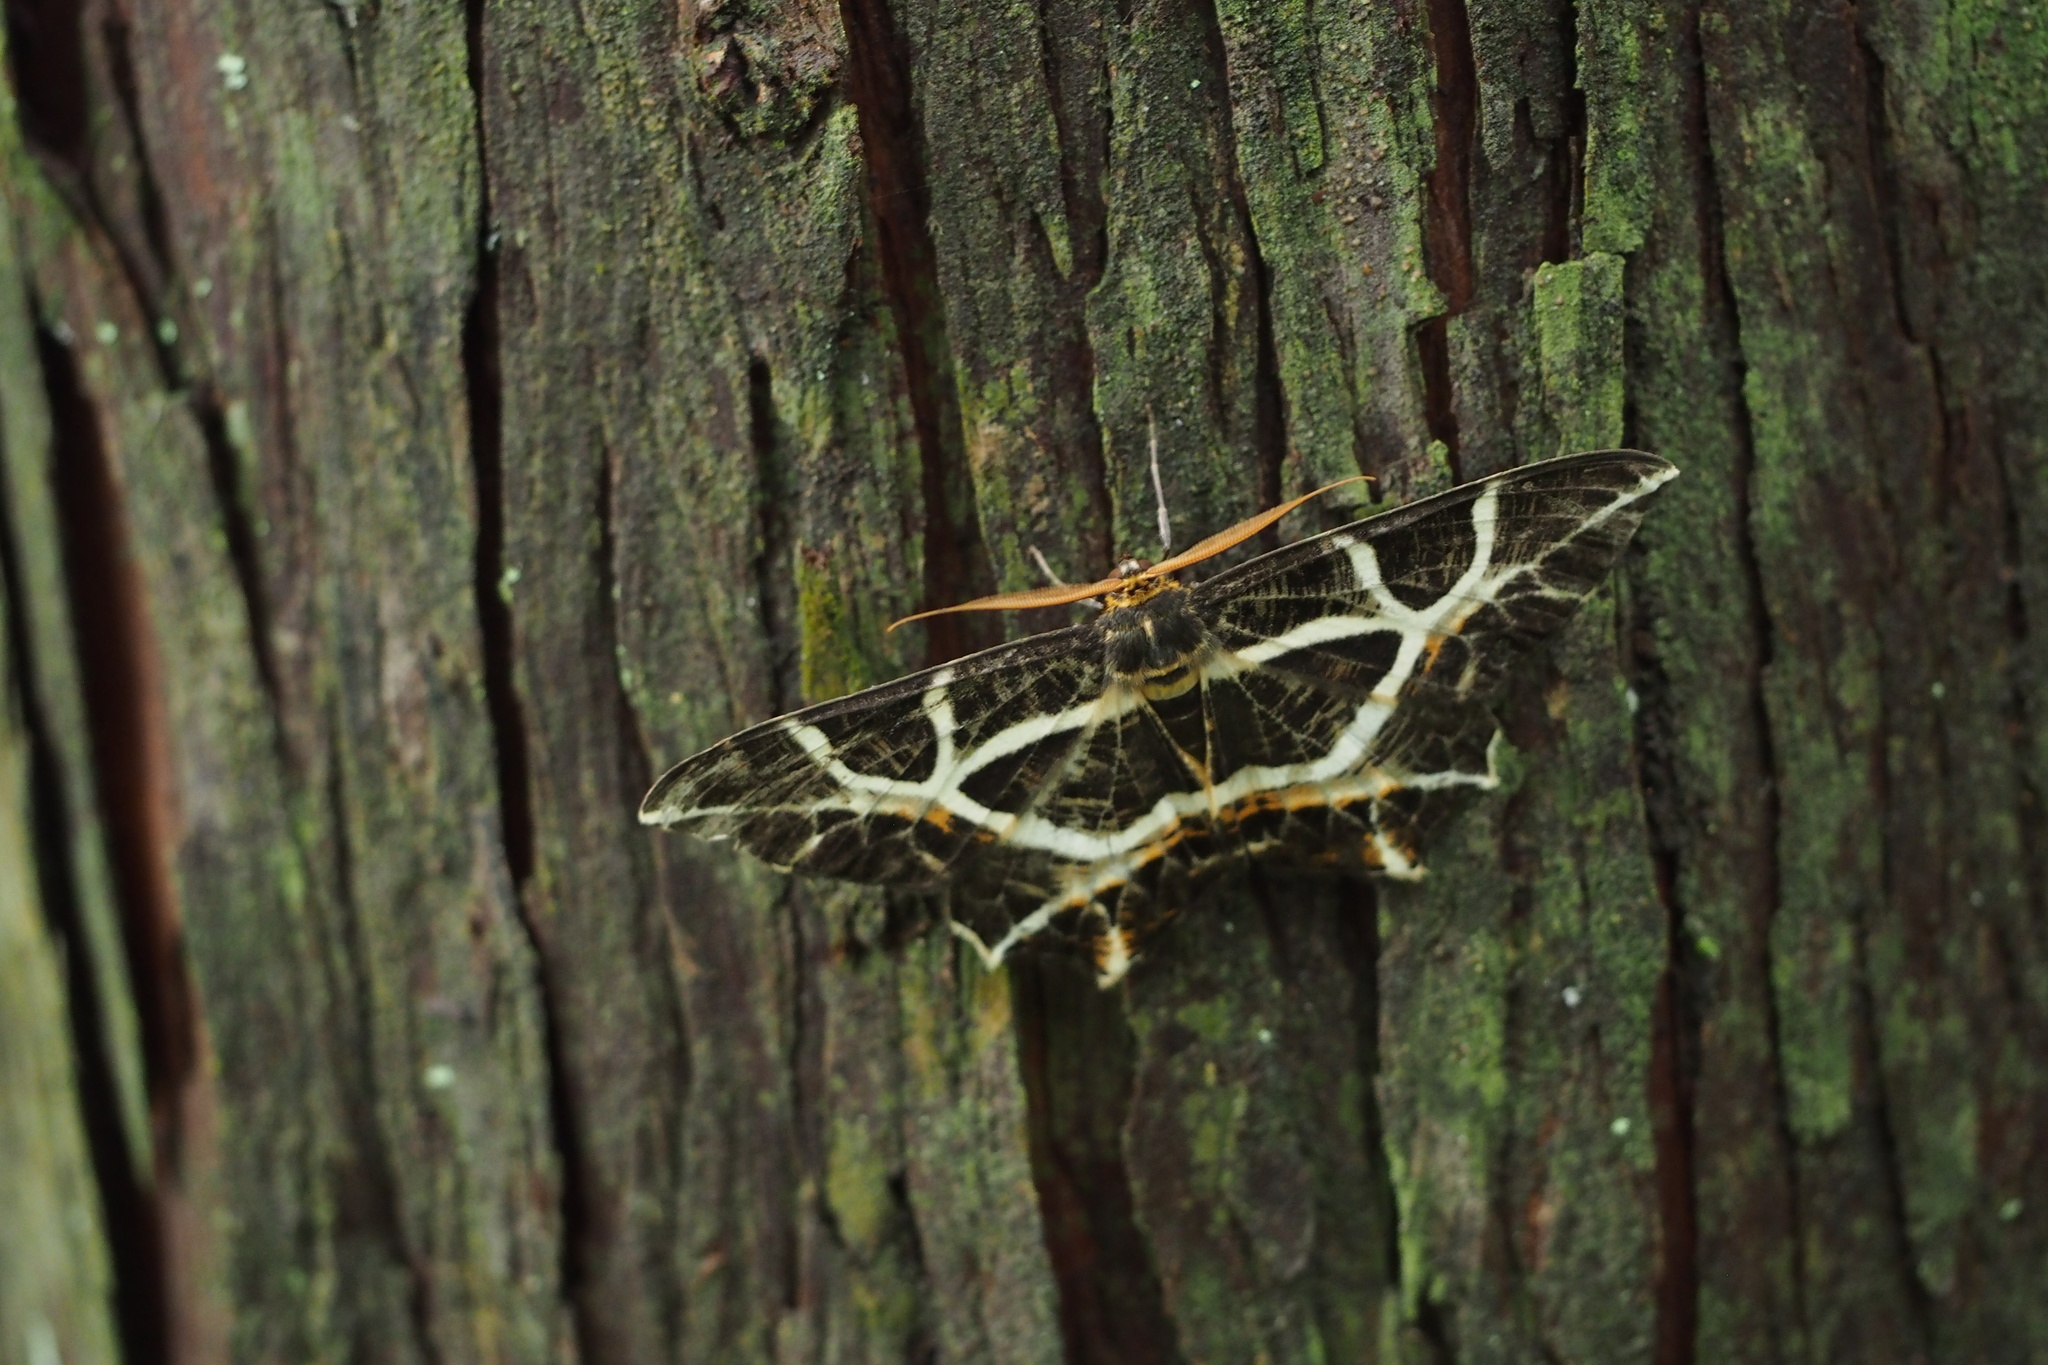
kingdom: Animalia
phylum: Arthropoda
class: Insecta
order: Lepidoptera
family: Geometridae
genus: Mesastrape
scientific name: Mesastrape fulguraria
